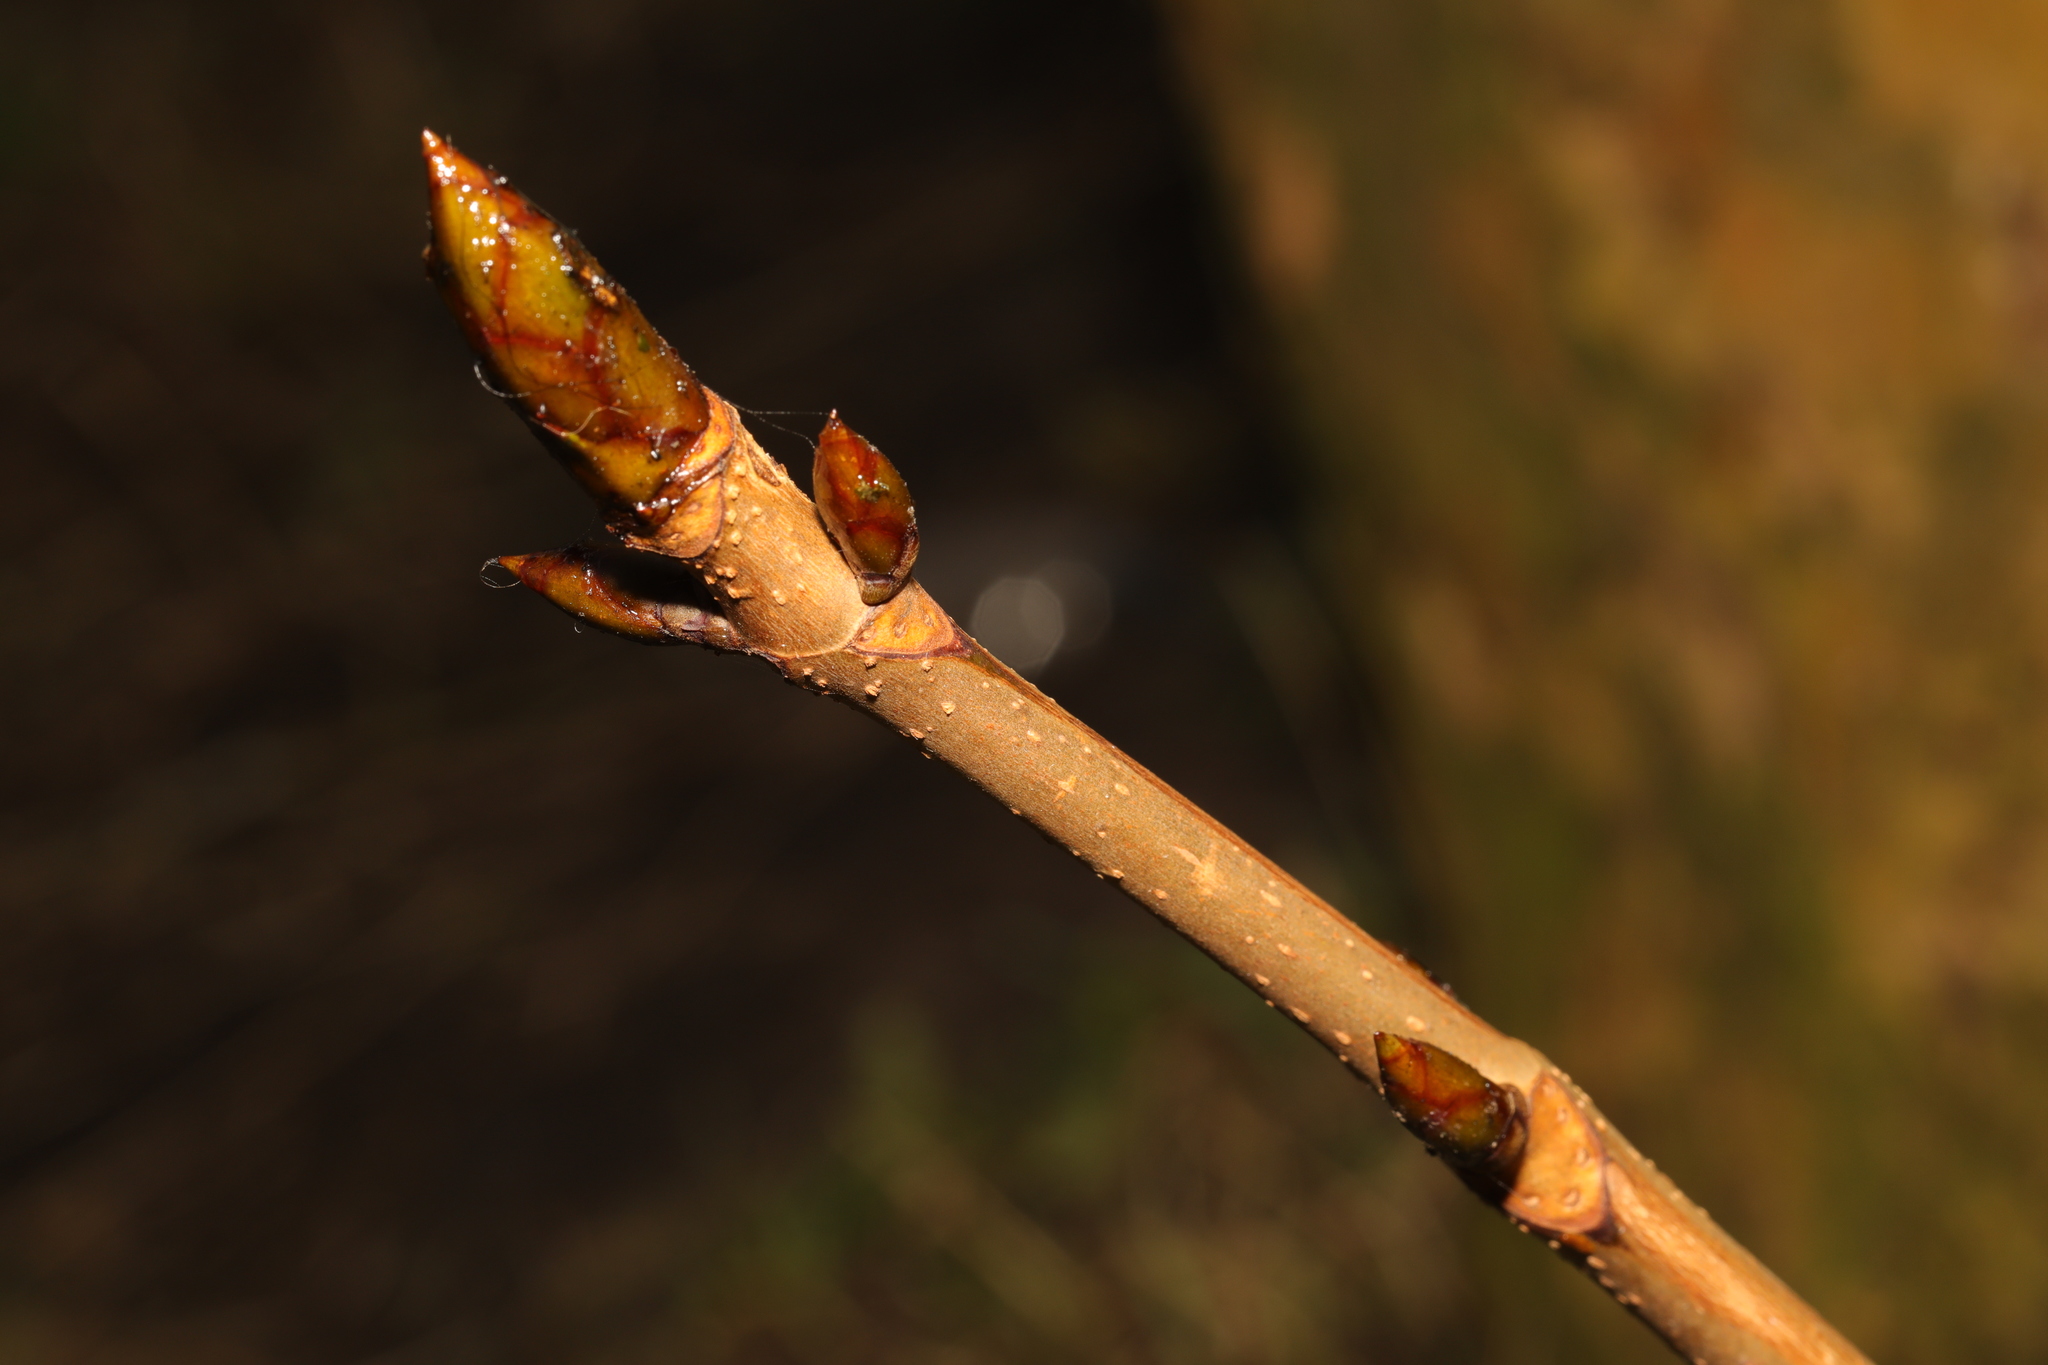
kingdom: Plantae
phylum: Tracheophyta
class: Magnoliopsida
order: Sapindales
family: Sapindaceae
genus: Aesculus
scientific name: Aesculus hippocastanum
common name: Horse-chestnut
